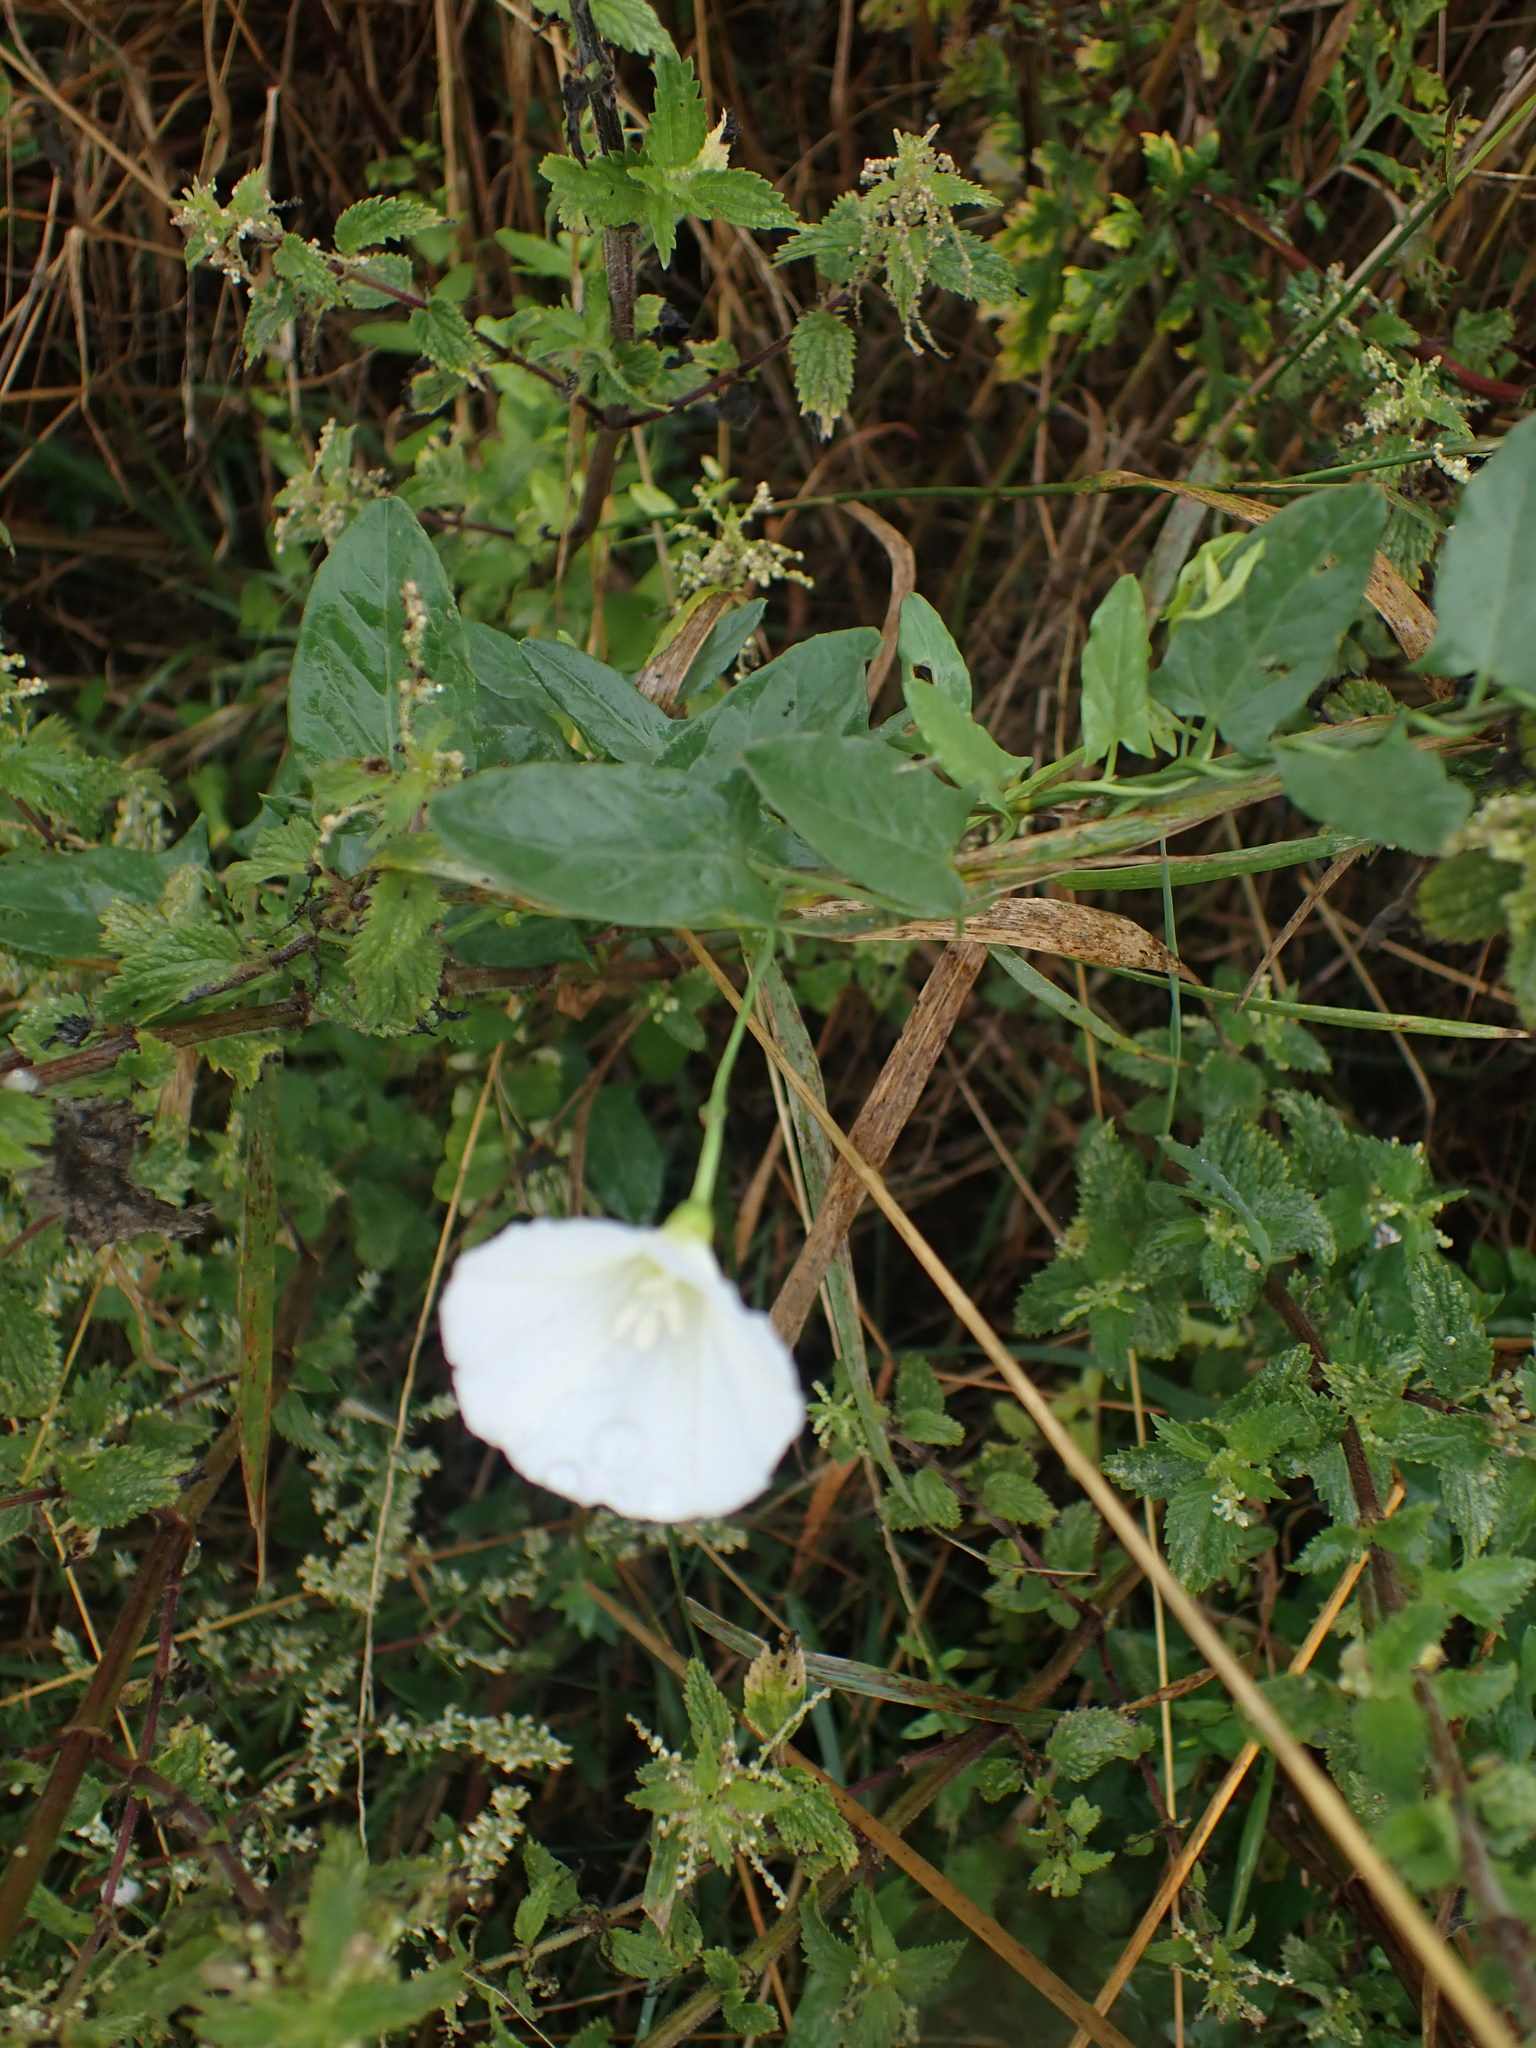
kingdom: Plantae
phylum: Tracheophyta
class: Magnoliopsida
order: Solanales
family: Convolvulaceae
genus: Convolvulus
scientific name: Convolvulus arvensis
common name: Field bindweed
